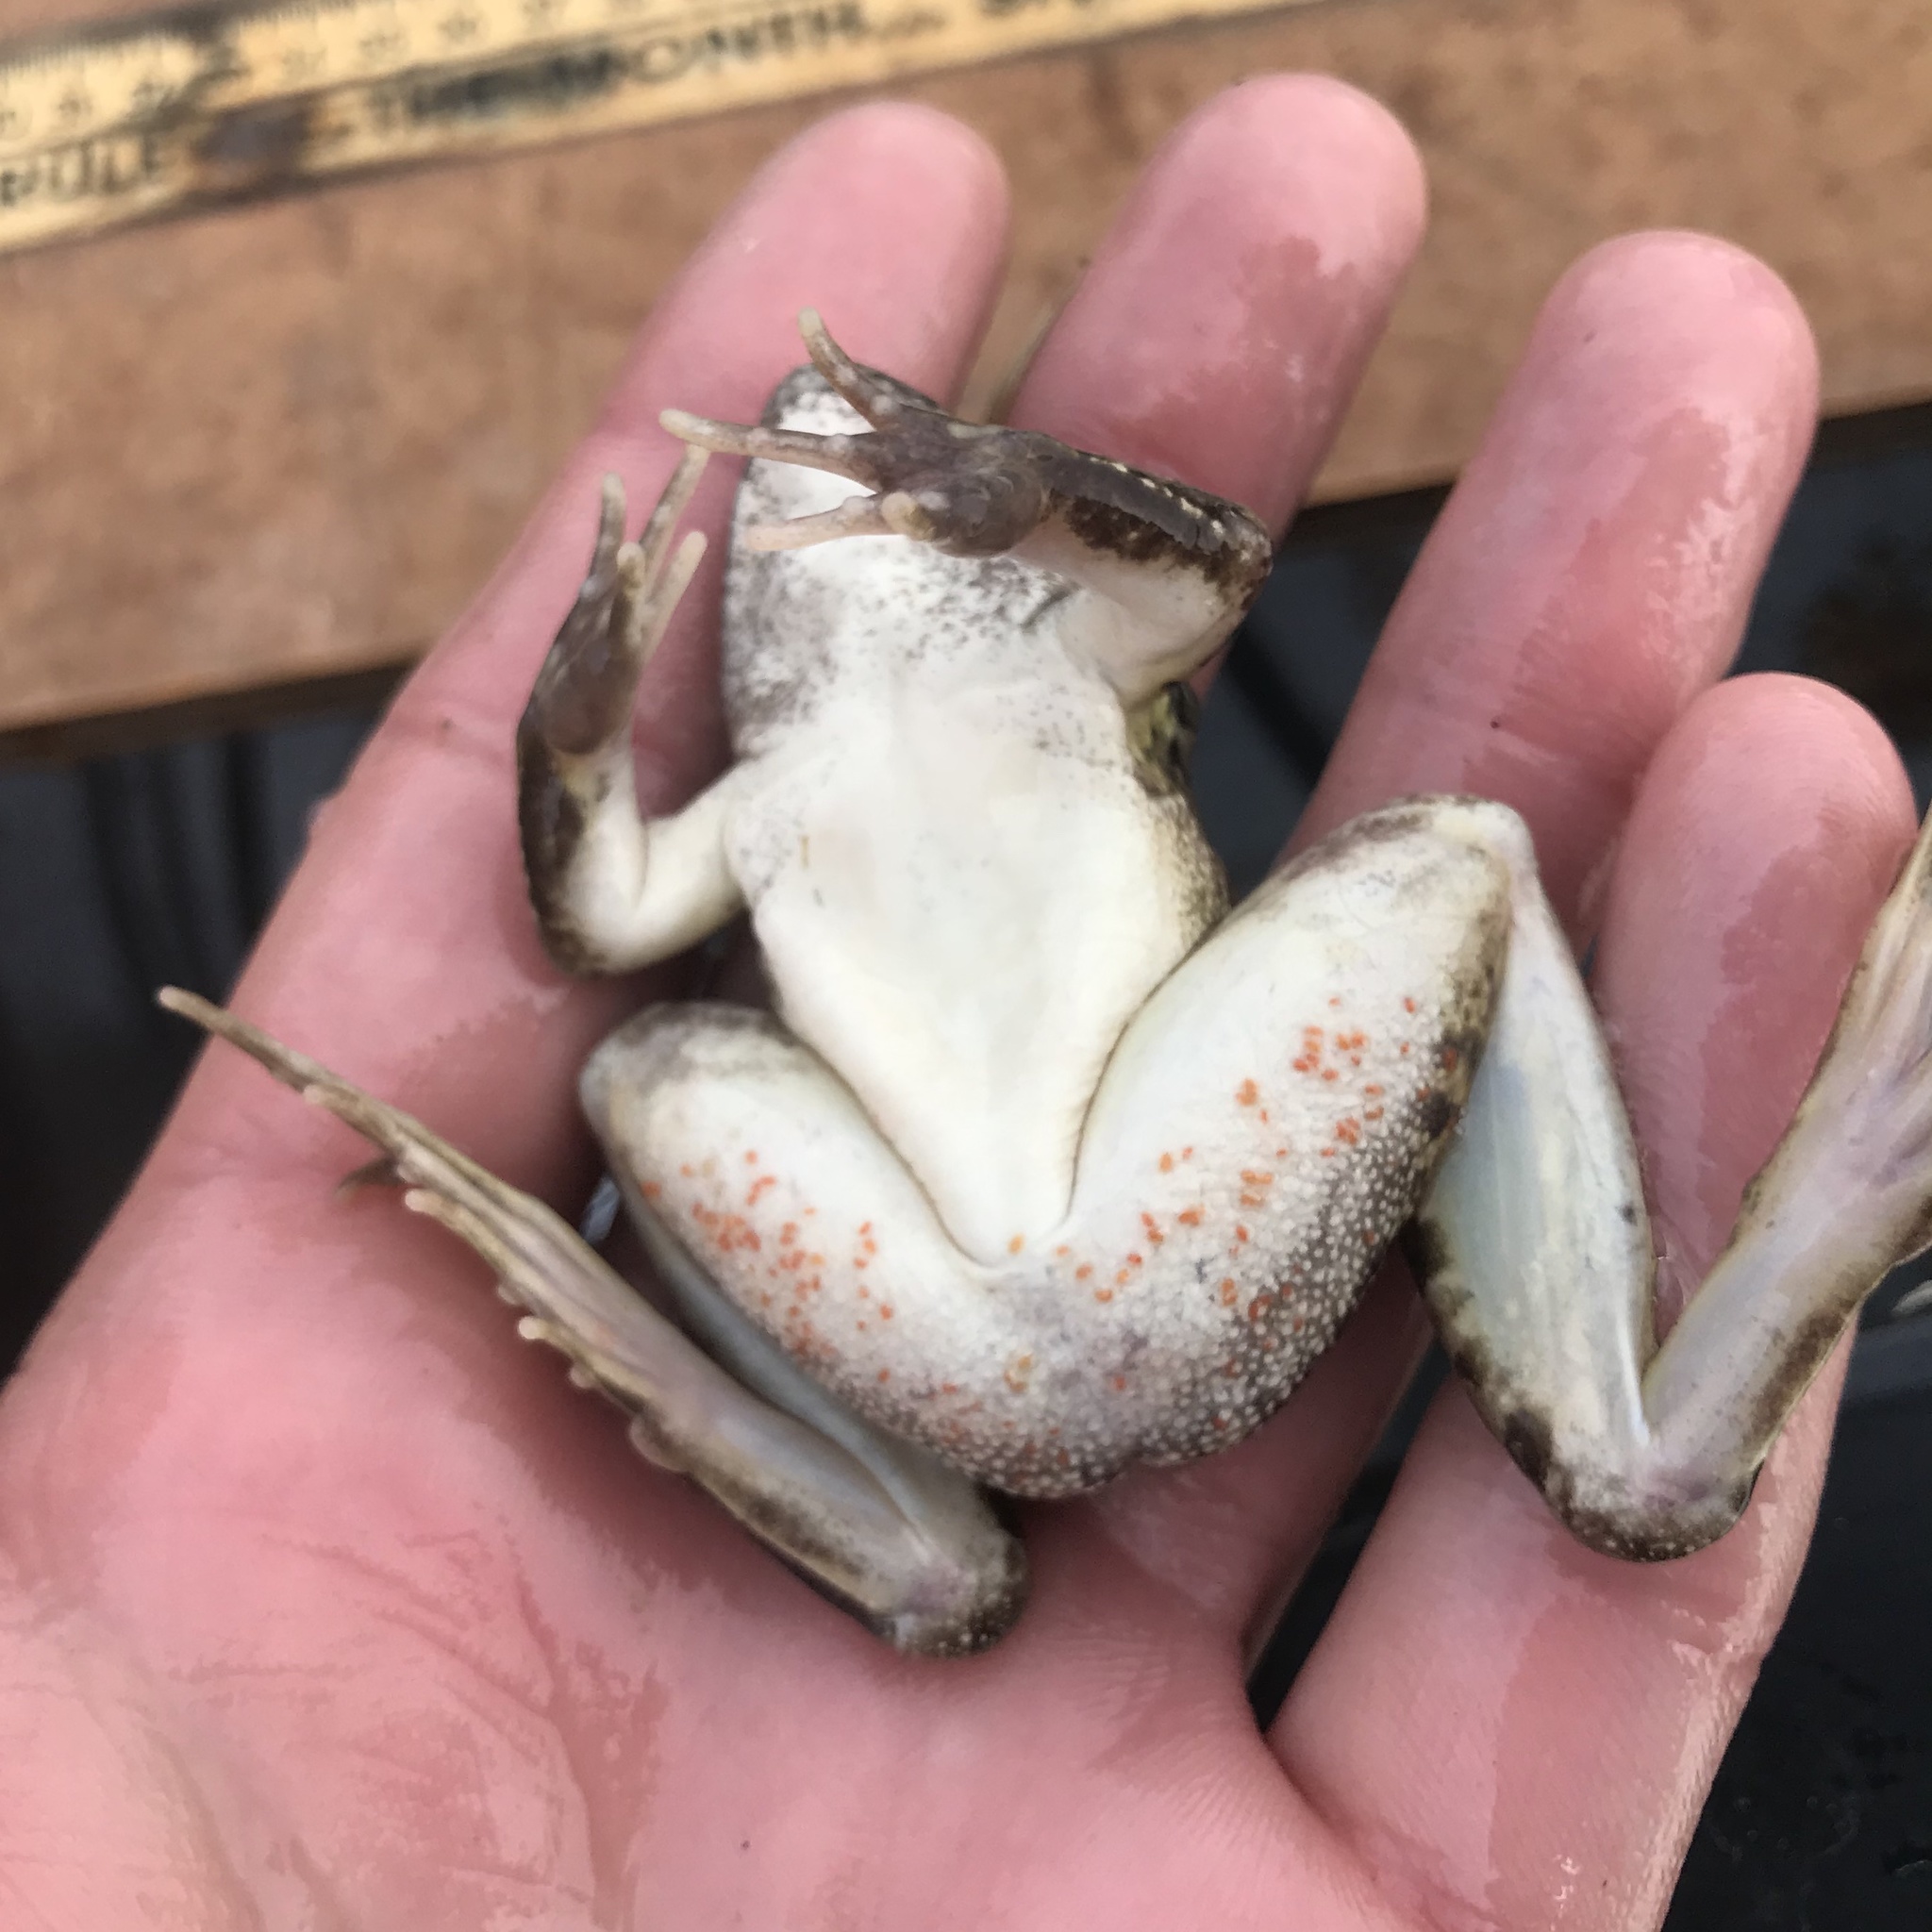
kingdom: Animalia
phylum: Chordata
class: Amphibia
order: Anura
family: Ranidae
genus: Lithobates
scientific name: Lithobates berlandieri
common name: Rio grande leopard frog
